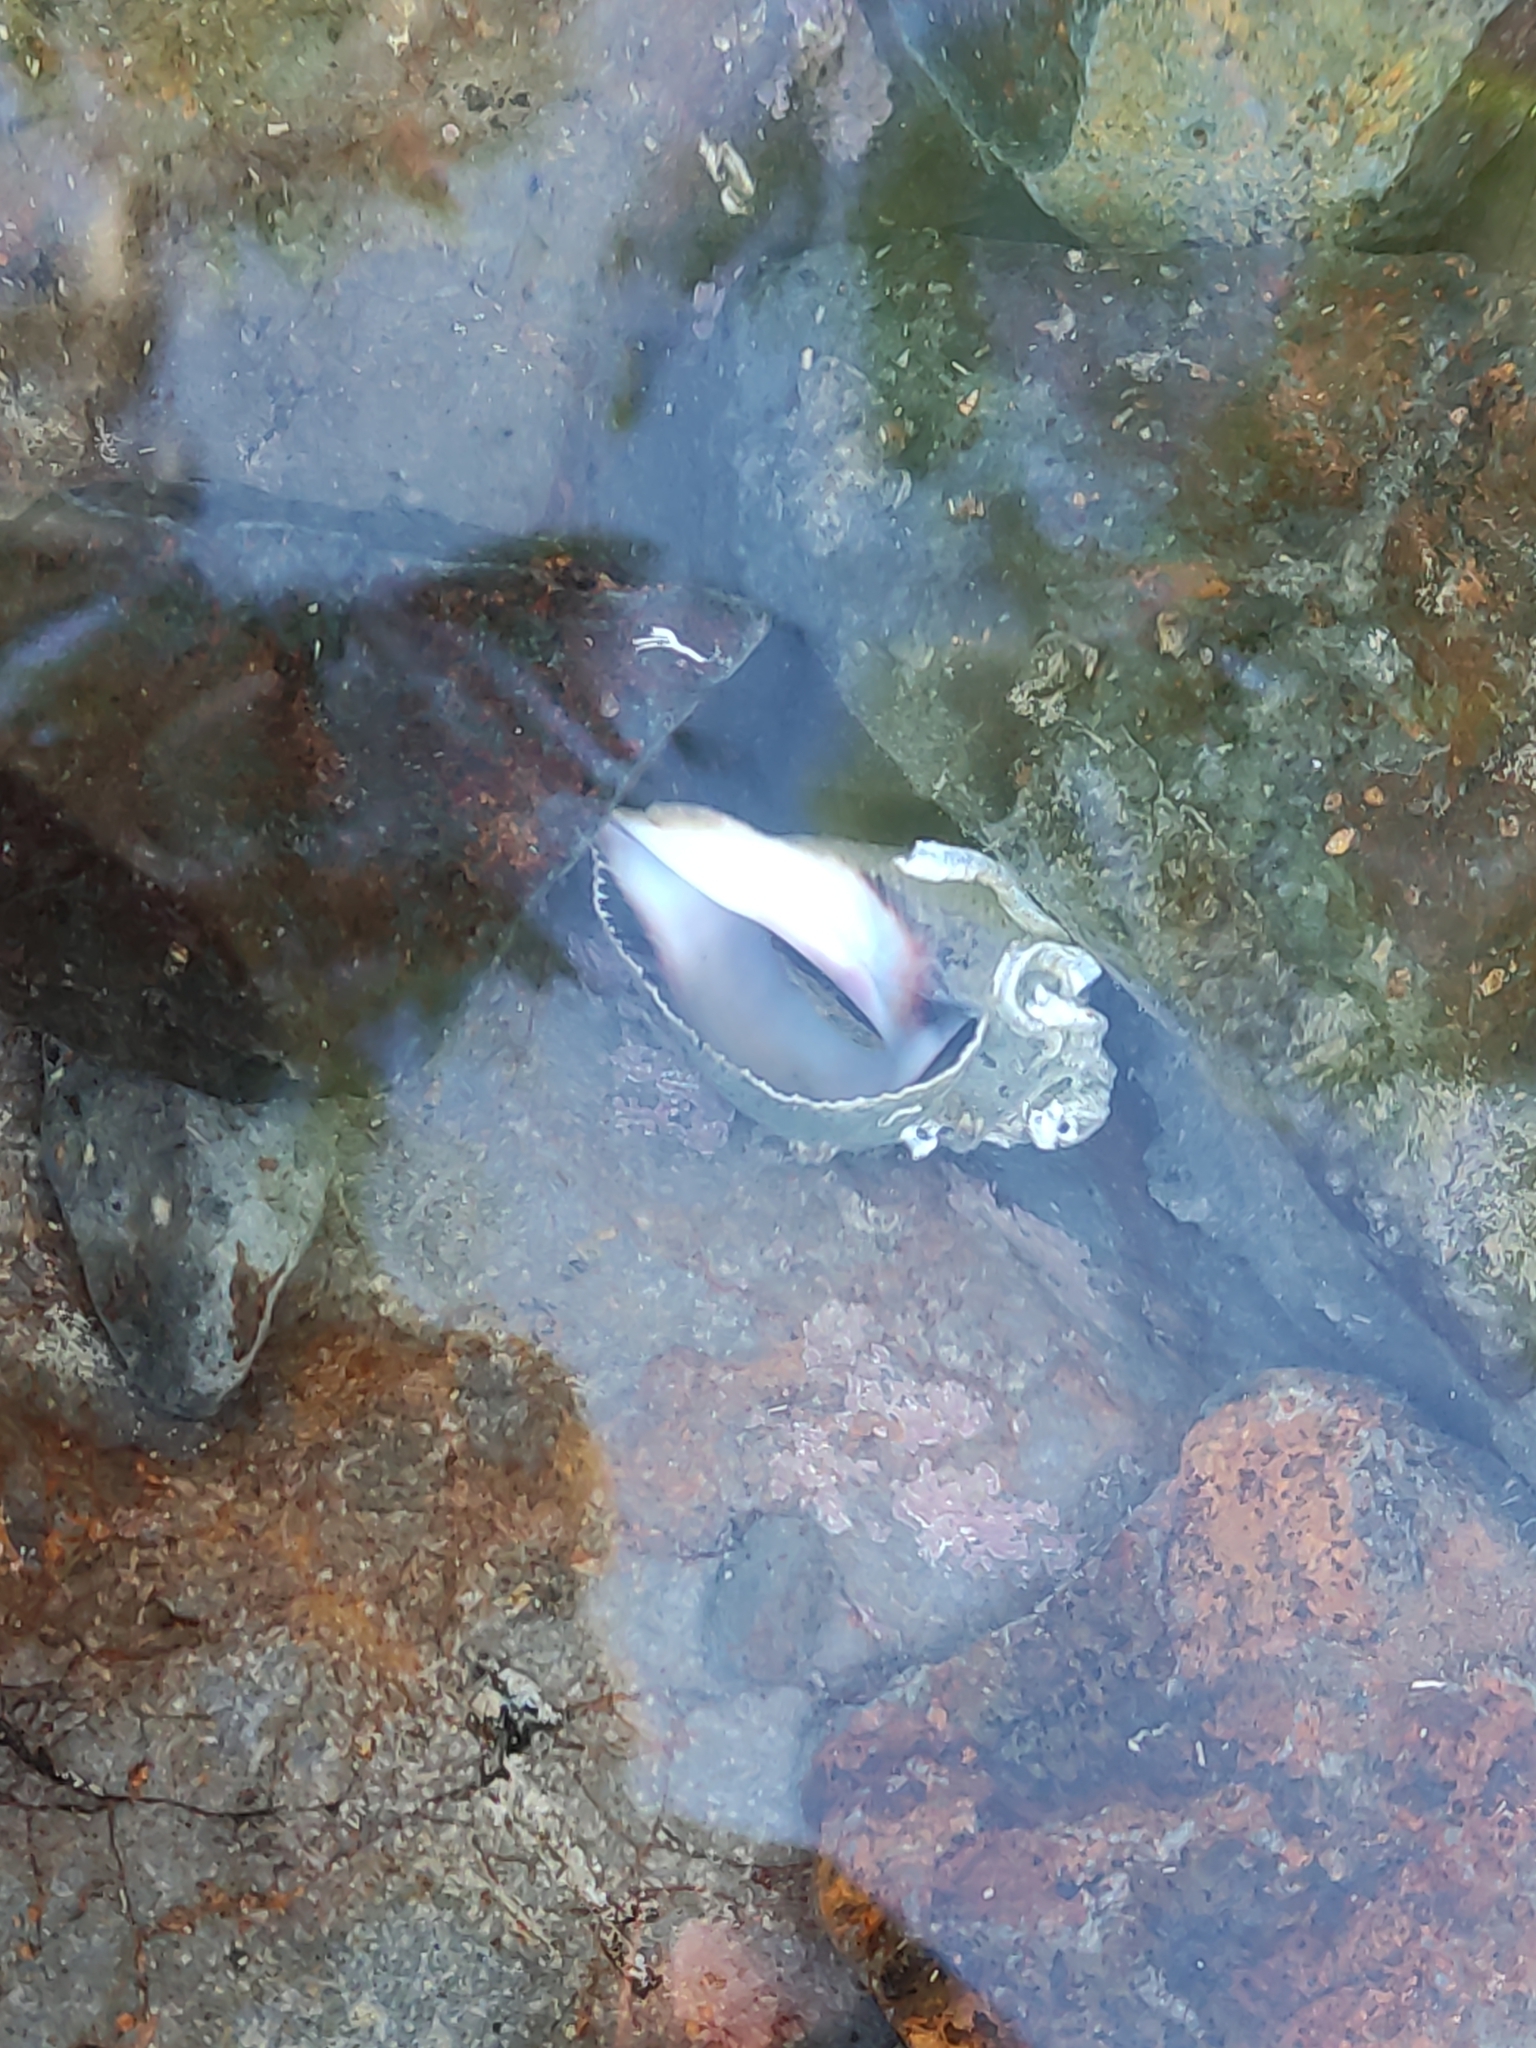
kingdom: Animalia
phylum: Mollusca
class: Gastropoda
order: Neogastropoda
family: Muricidae
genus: Haustrum
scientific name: Haustrum haustorium
